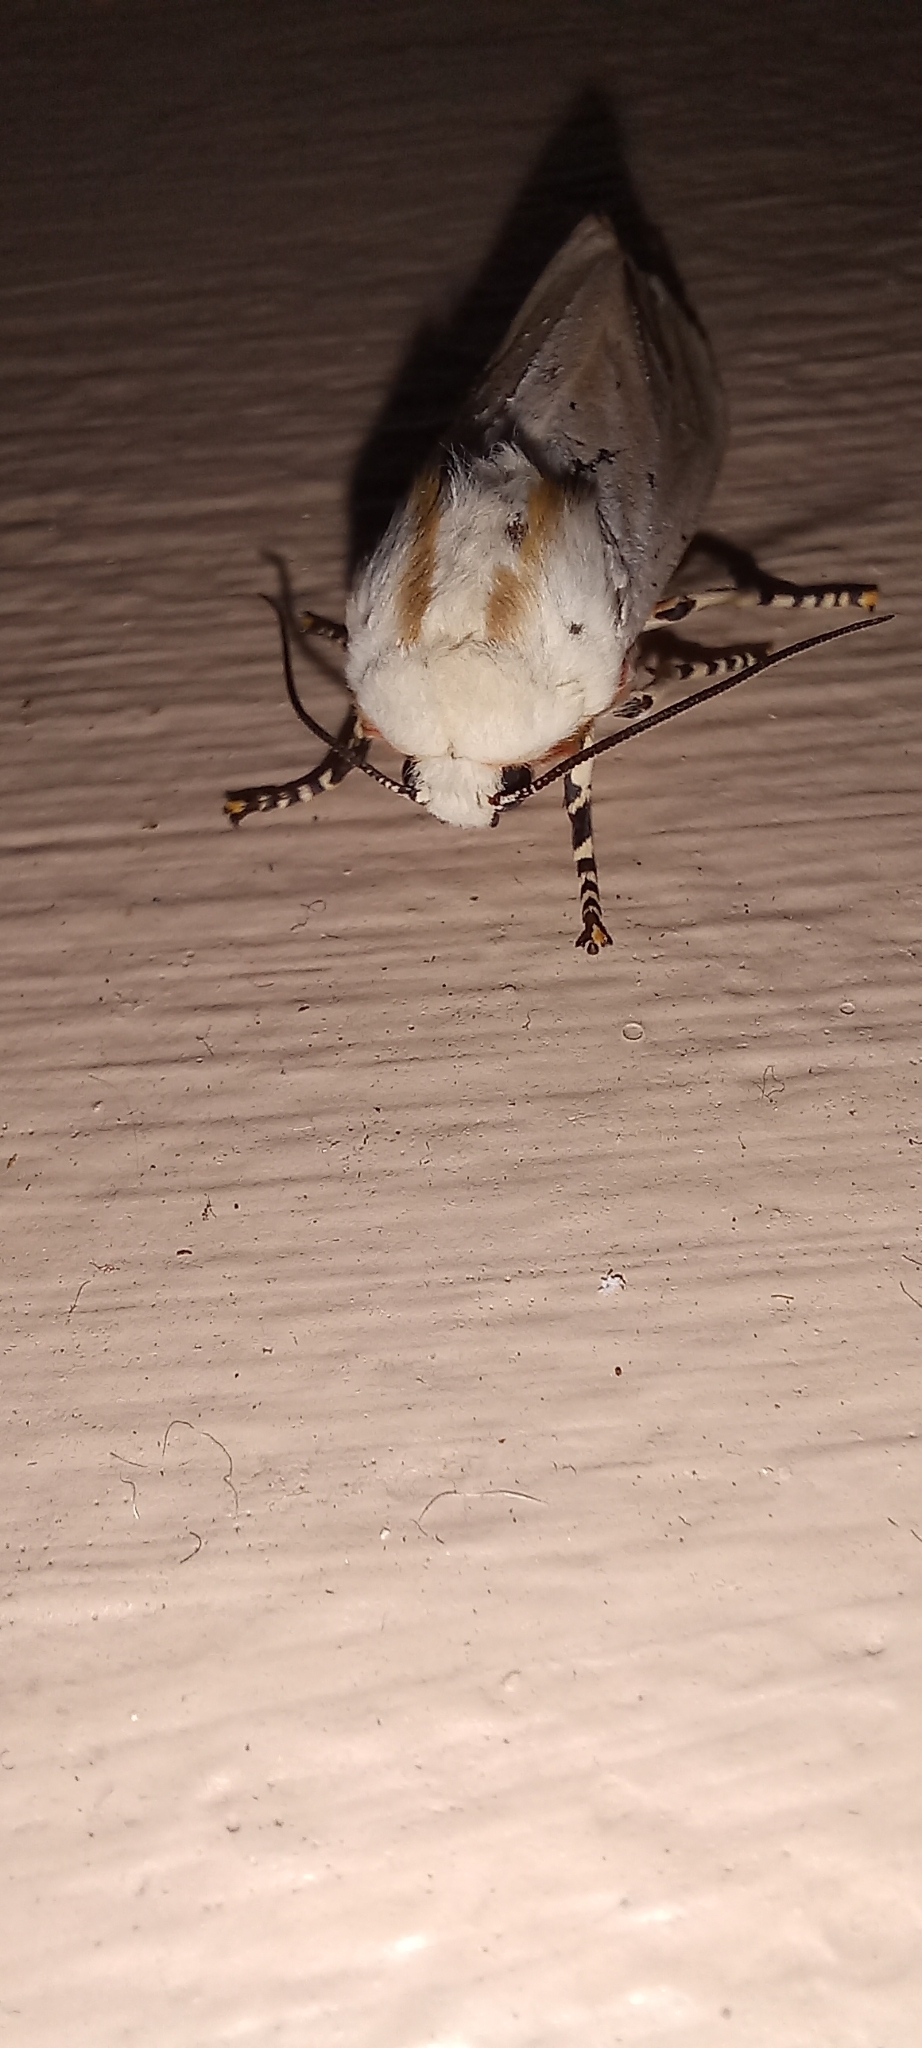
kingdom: Animalia
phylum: Arthropoda
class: Insecta
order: Lepidoptera
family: Erebidae
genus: Rhodogastria
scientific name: Rhodogastria amasis
